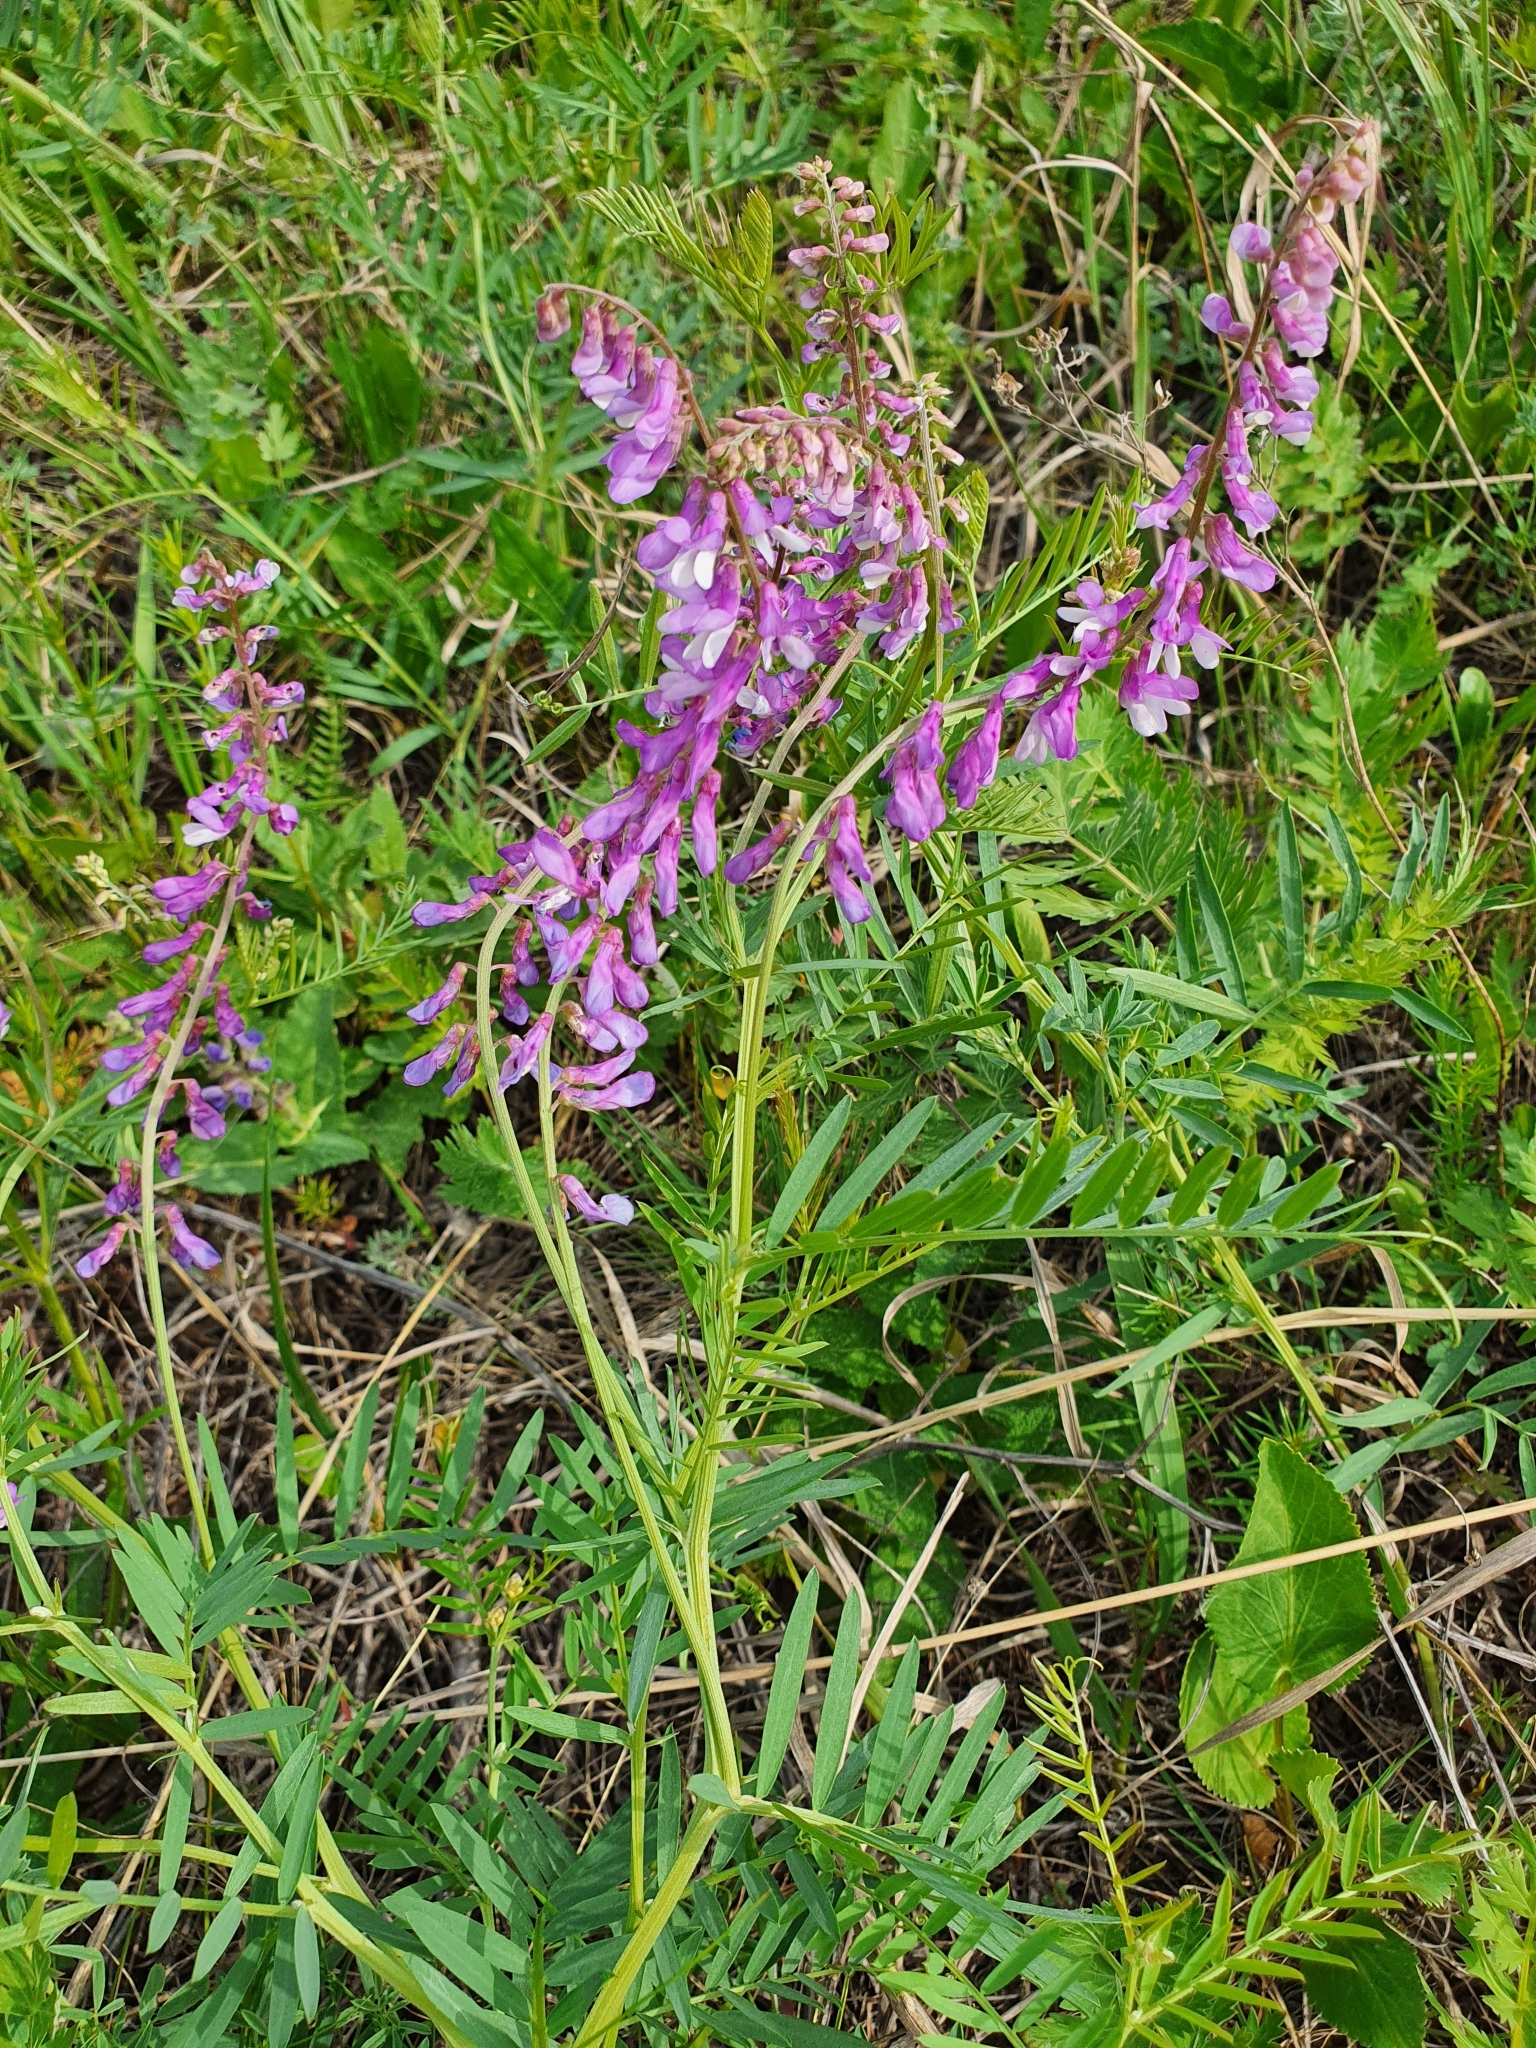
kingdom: Plantae
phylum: Tracheophyta
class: Magnoliopsida
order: Fabales
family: Fabaceae
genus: Vicia
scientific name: Vicia tenuifolia
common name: Fine-leaved vetch
